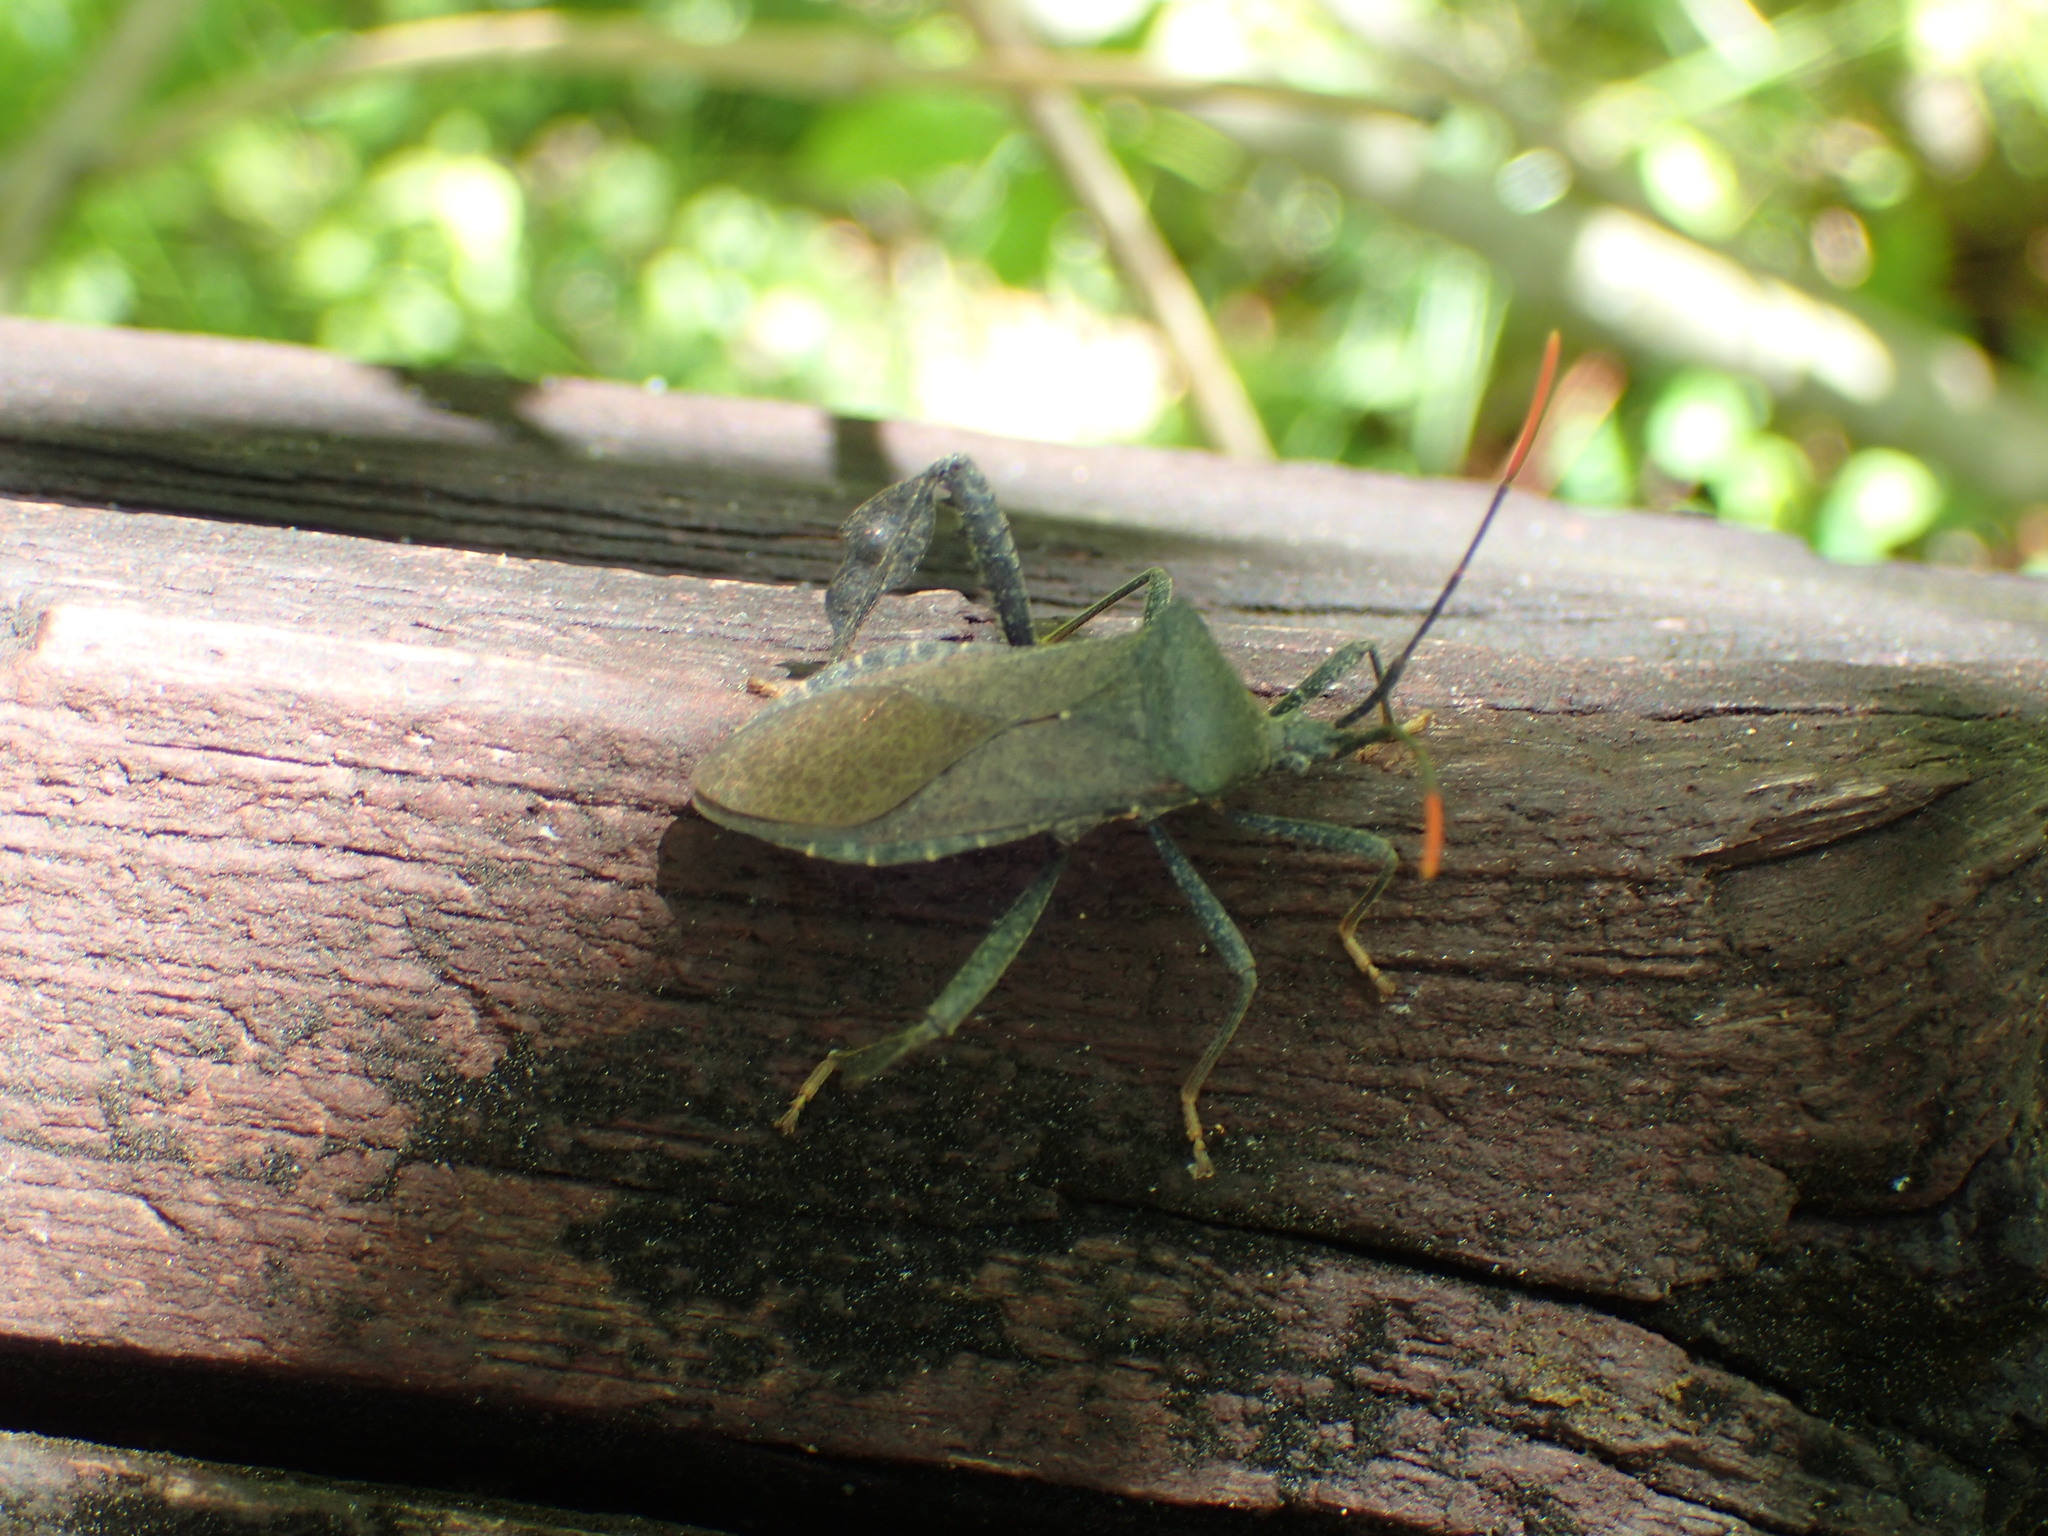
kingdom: Animalia
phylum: Arthropoda
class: Insecta
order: Hemiptera
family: Coreidae
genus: Acanthocephala
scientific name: Acanthocephala terminalis
